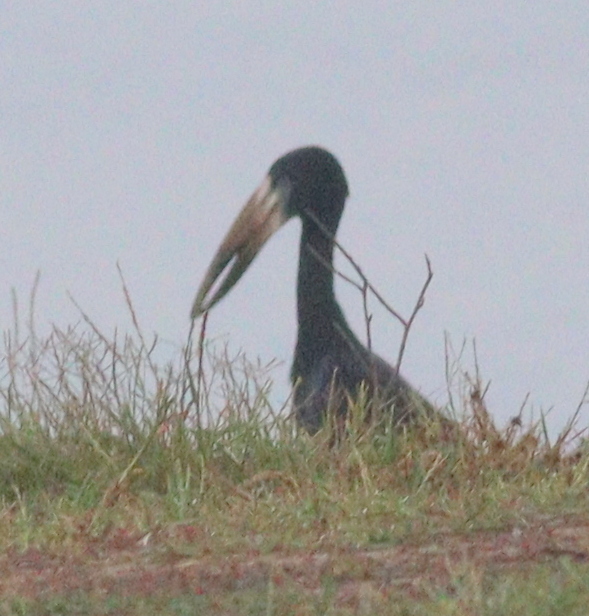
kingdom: Animalia
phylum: Chordata
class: Aves
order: Ciconiiformes
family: Ciconiidae
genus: Anastomus
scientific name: Anastomus lamelligerus
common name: African openbill
